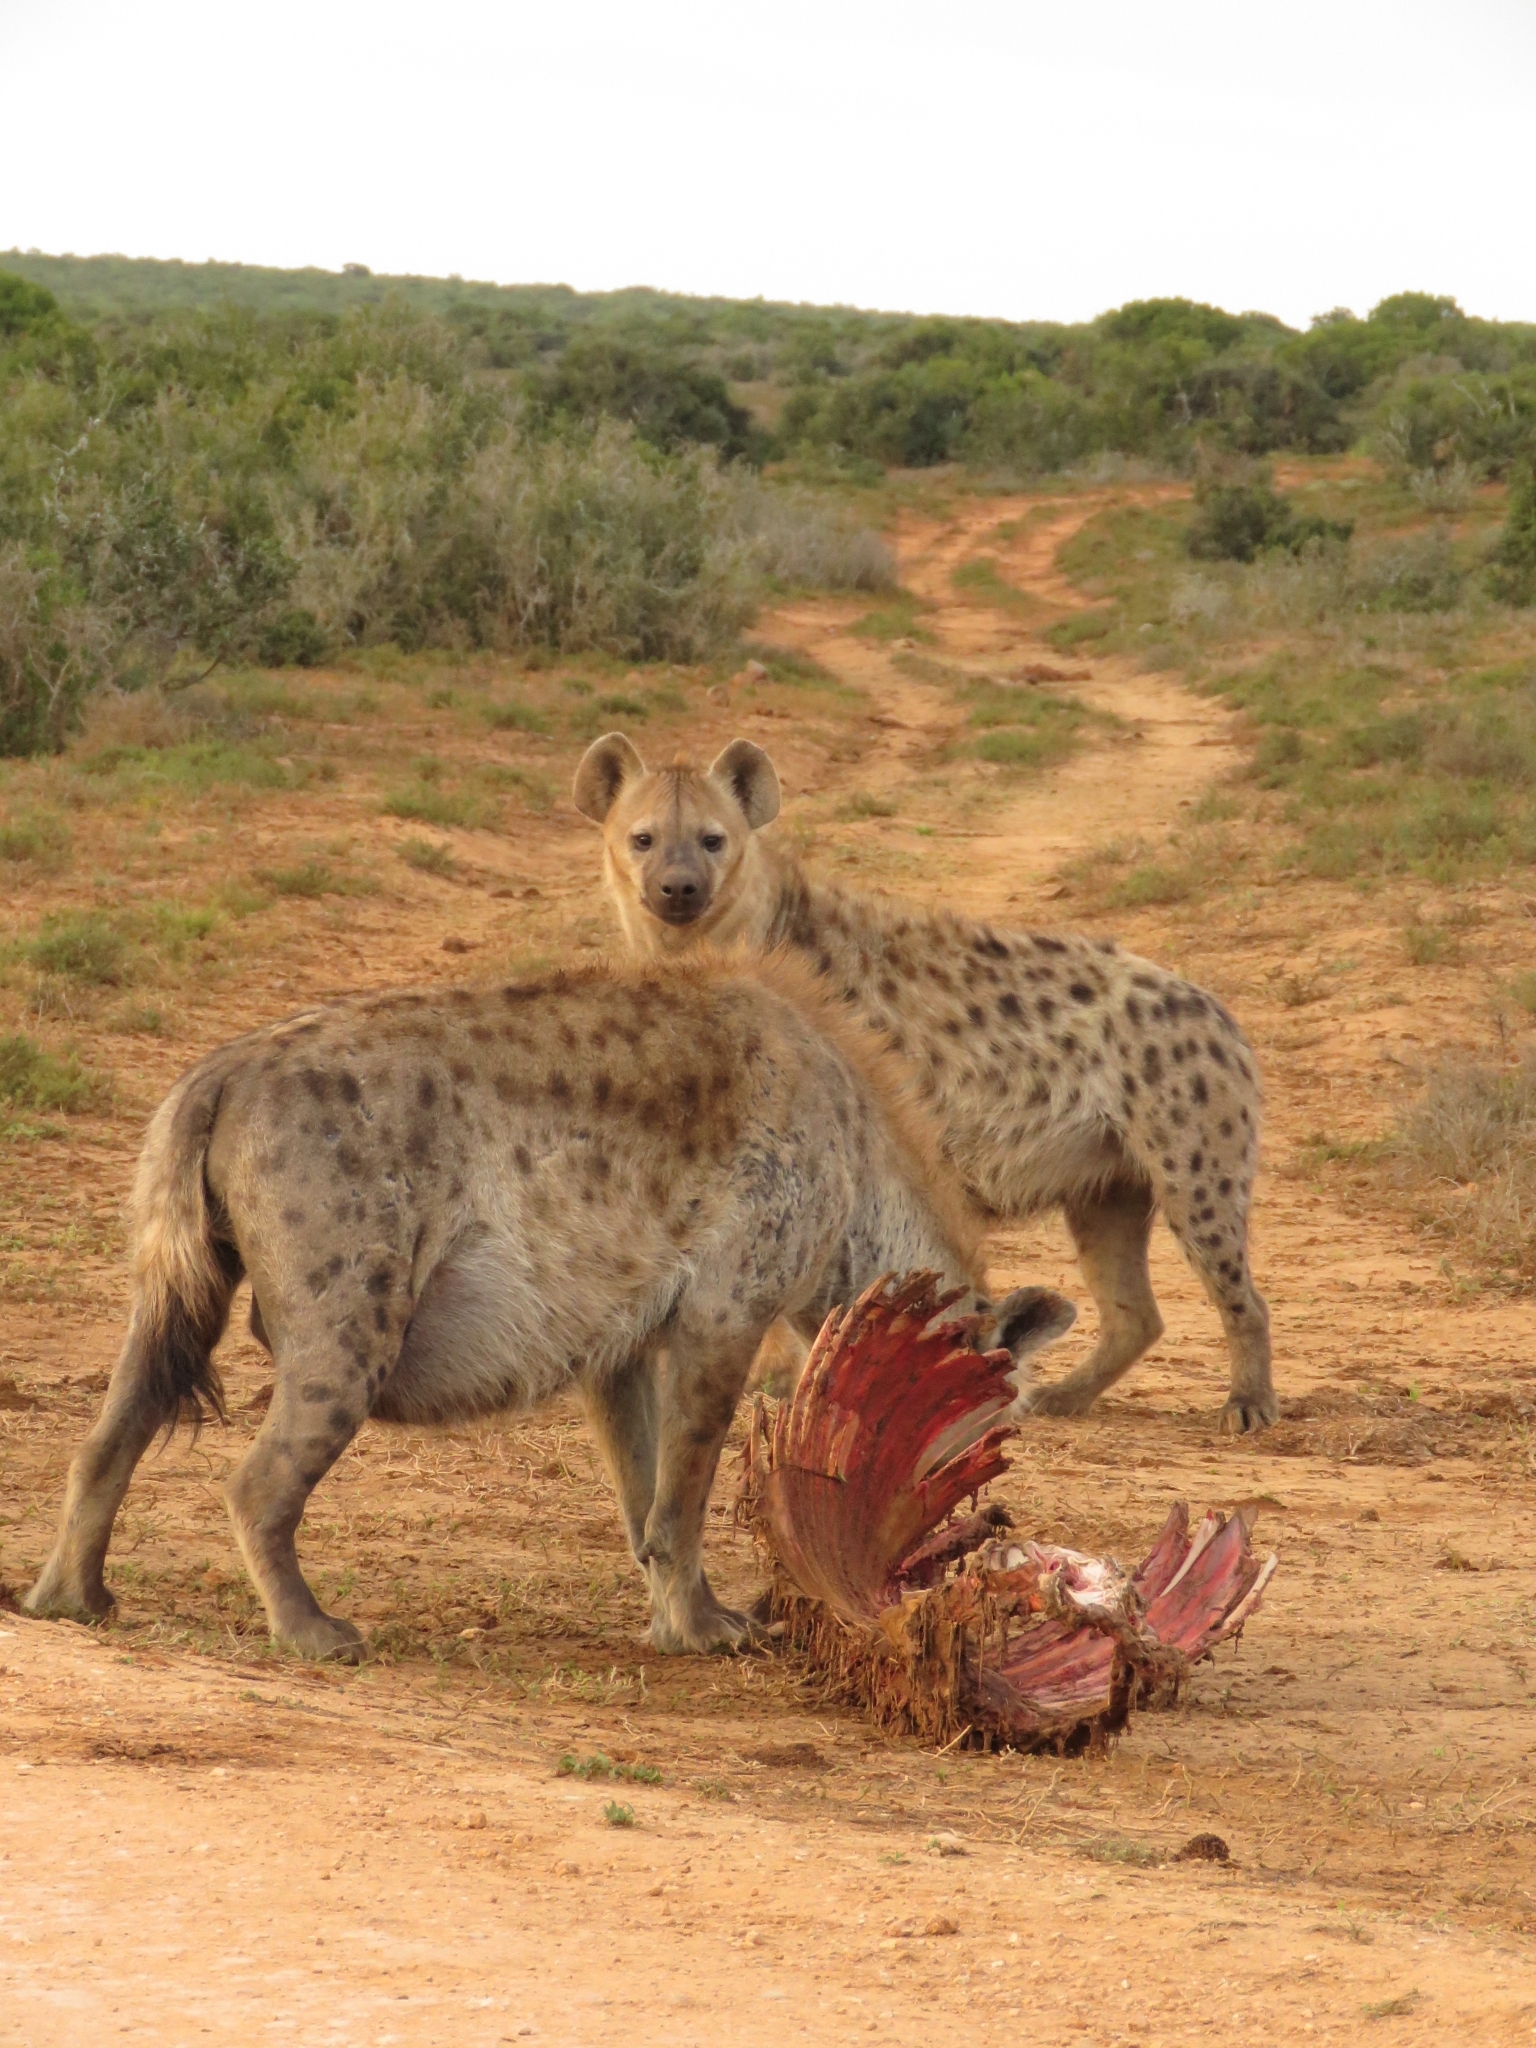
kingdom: Animalia
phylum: Chordata
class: Mammalia
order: Carnivora
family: Hyaenidae
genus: Crocuta
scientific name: Crocuta crocuta
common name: Spotted hyaena
